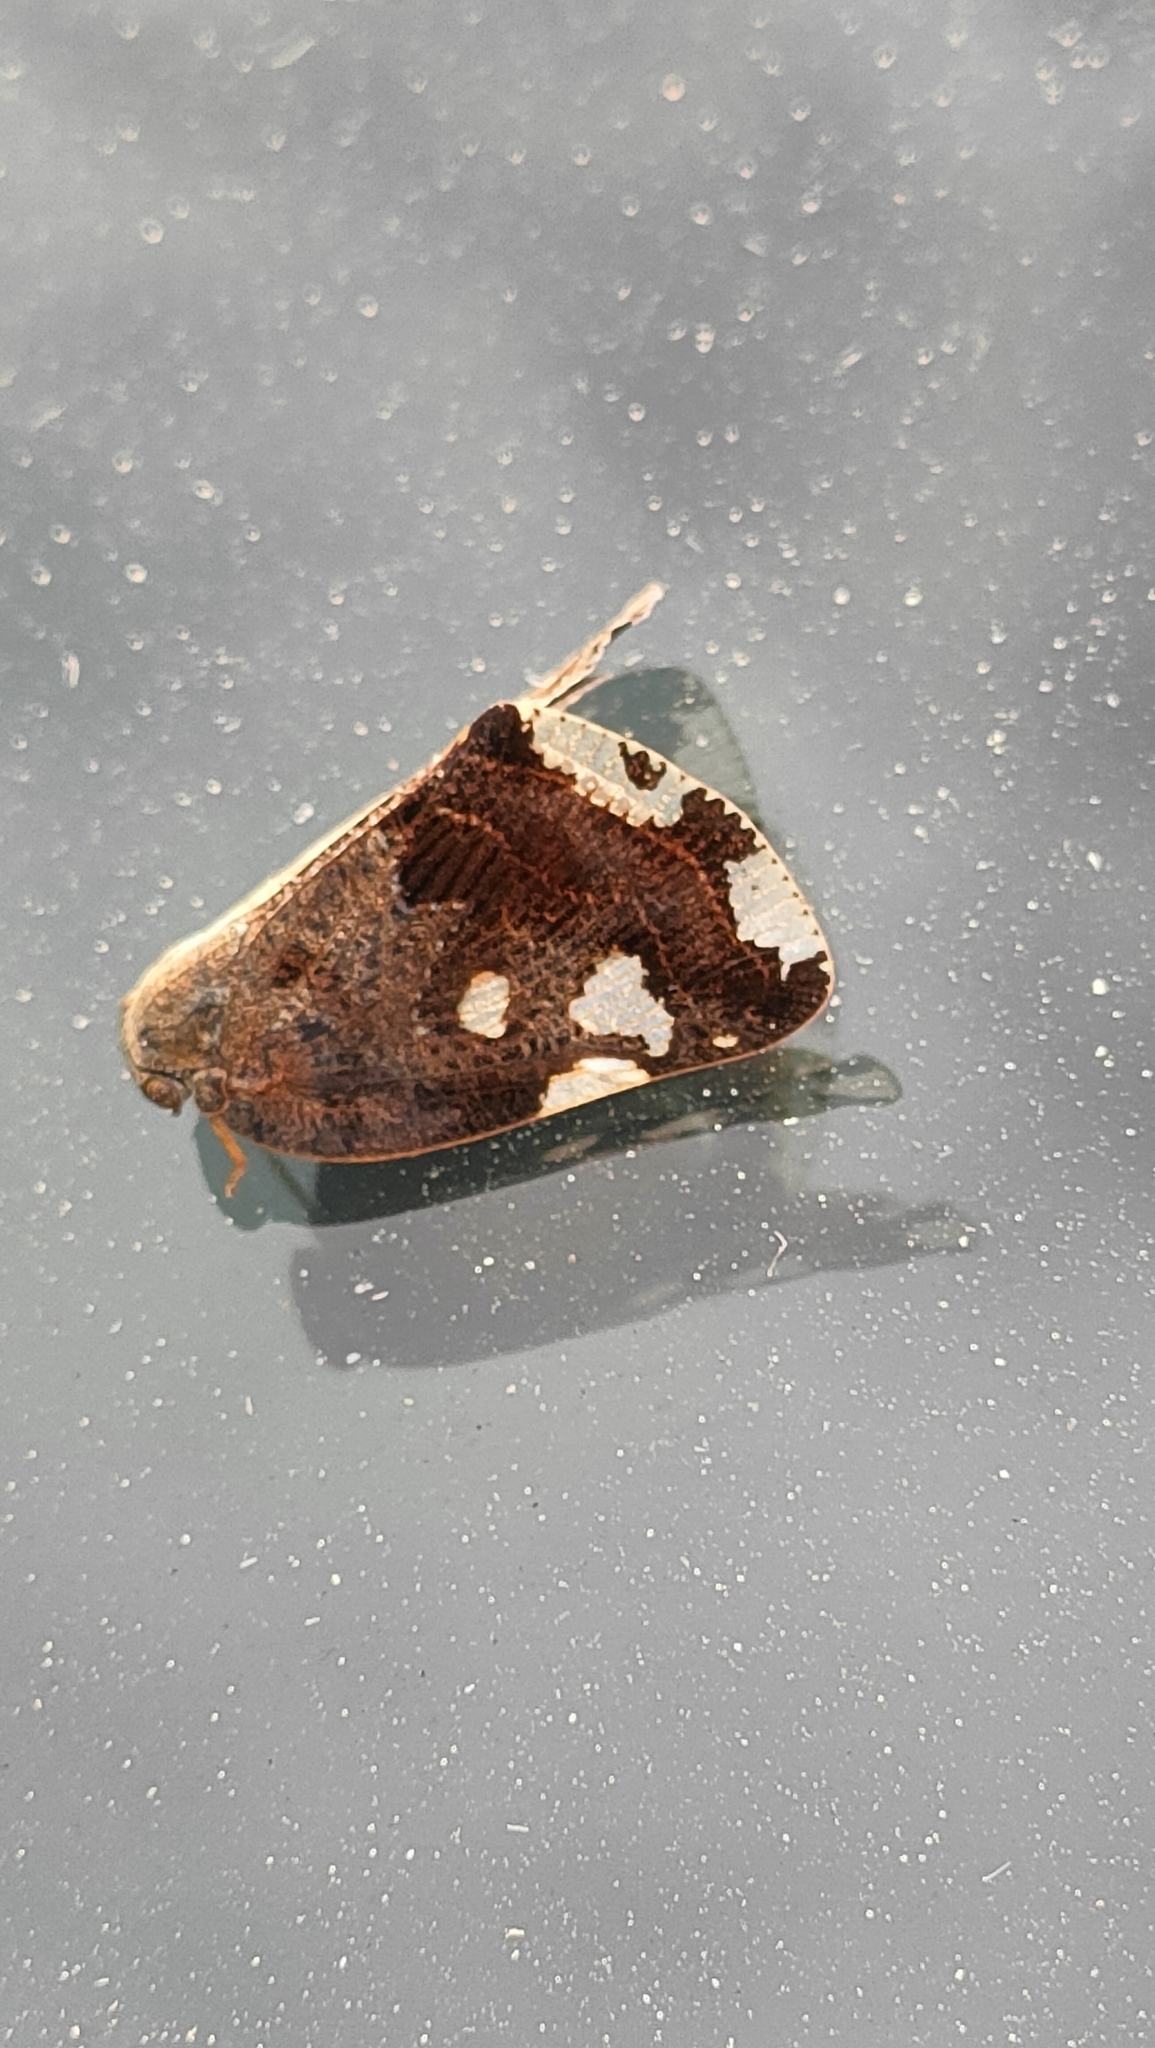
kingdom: Animalia
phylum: Arthropoda
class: Insecta
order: Hemiptera
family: Ricaniidae
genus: Ricania
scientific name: Ricania speculum
